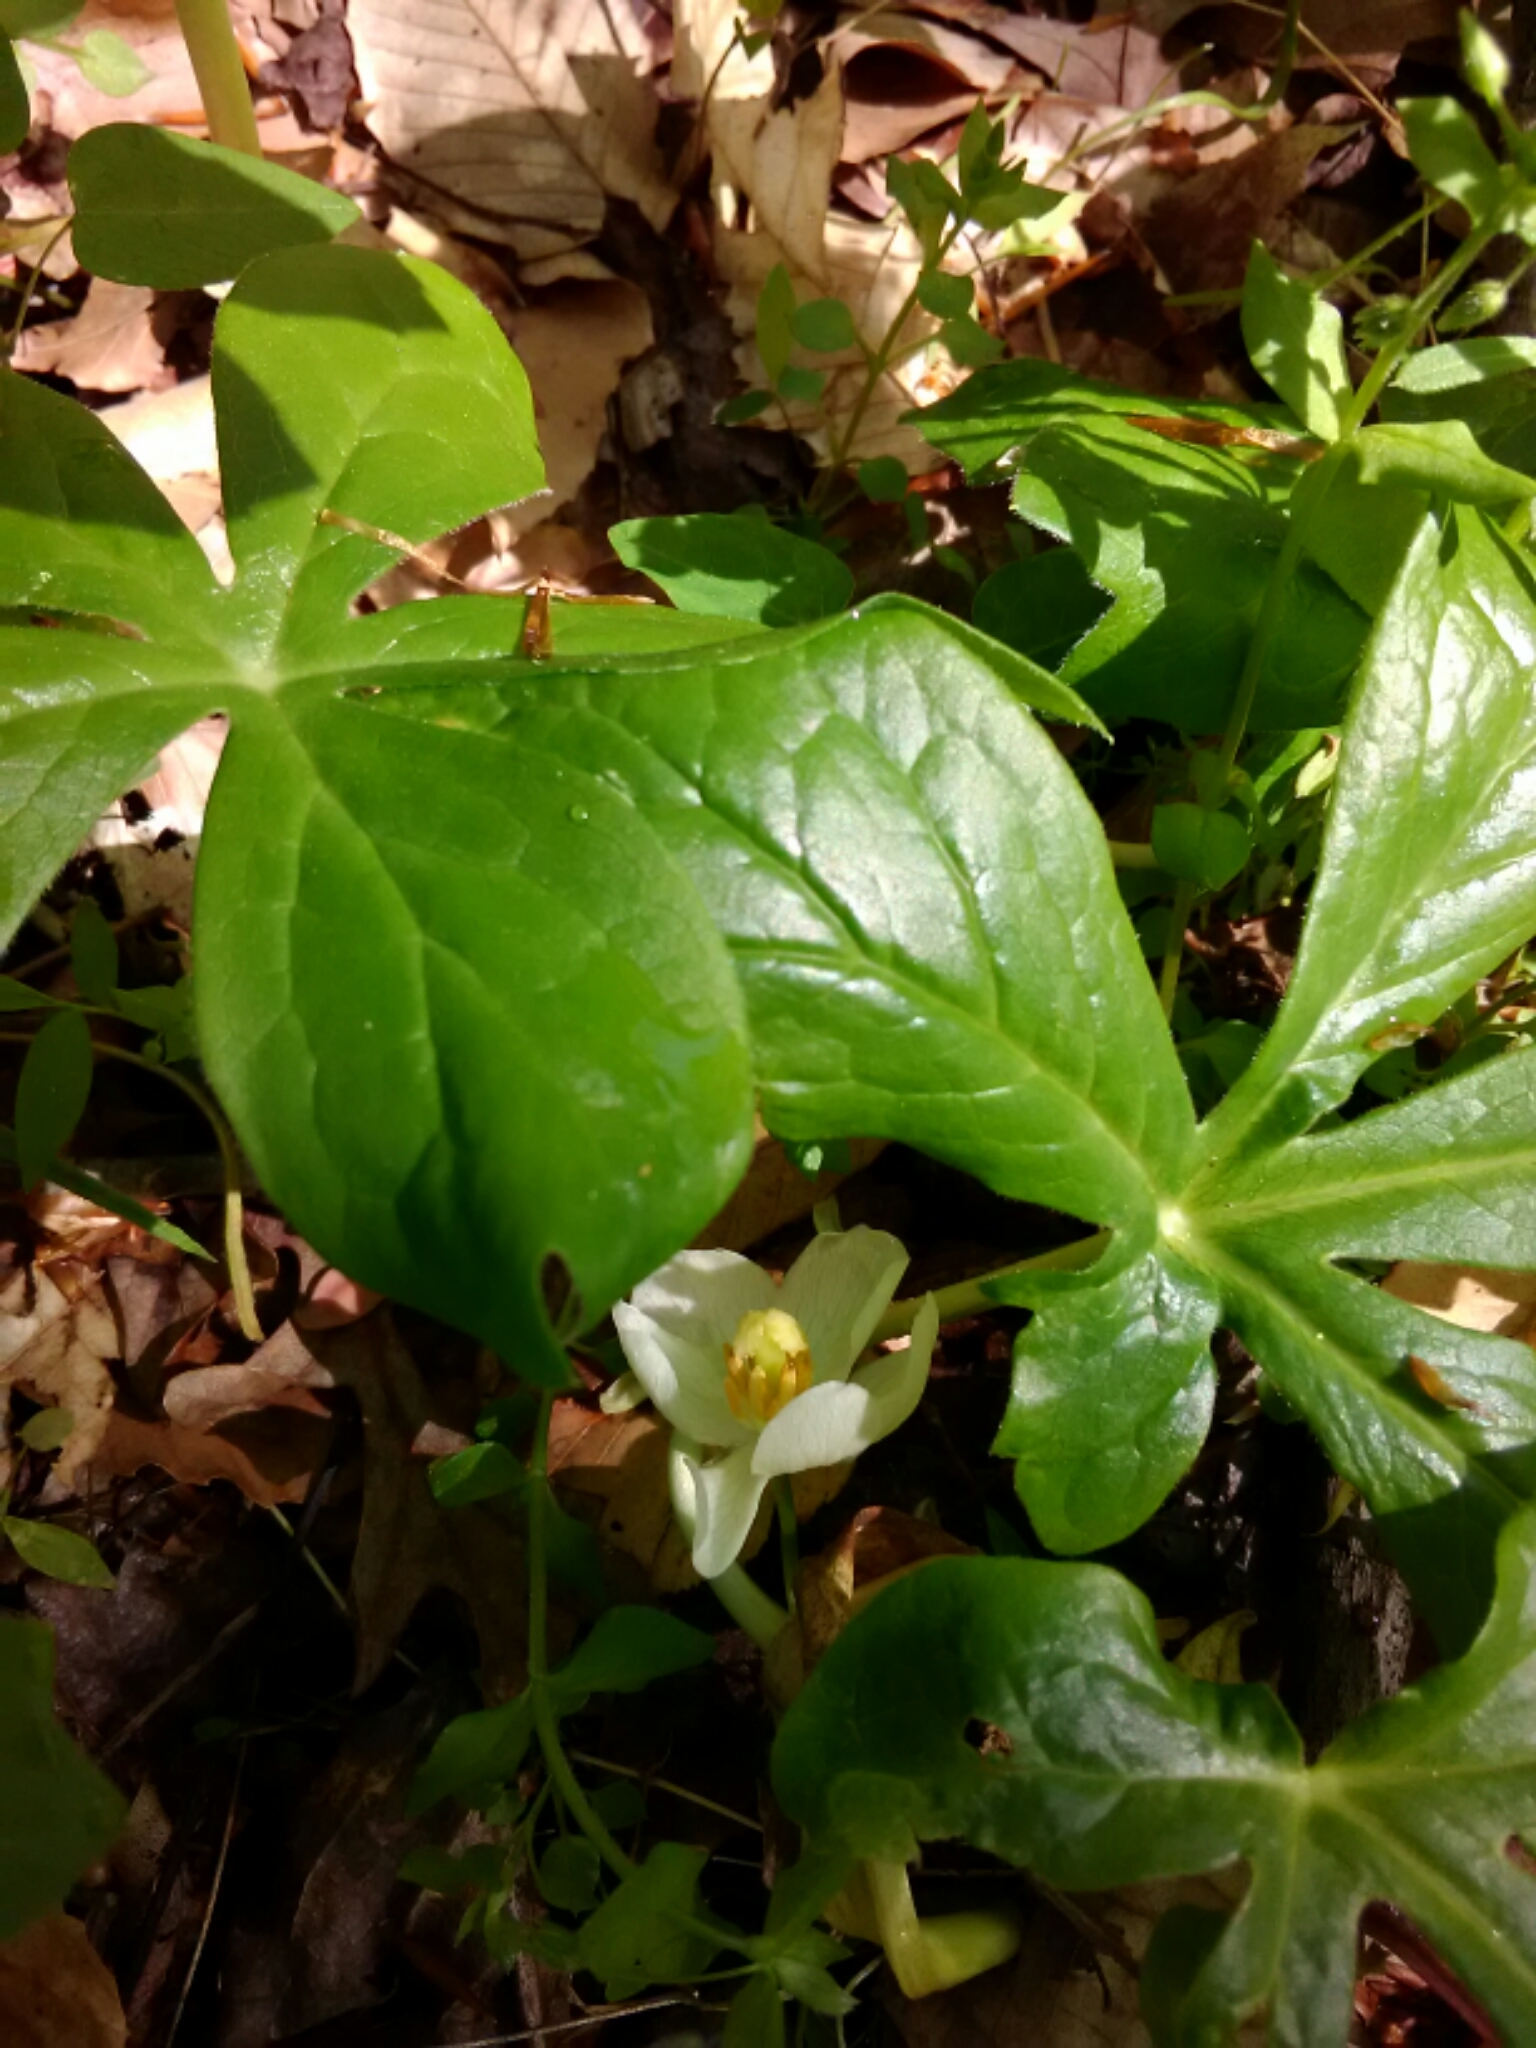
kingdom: Plantae
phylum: Tracheophyta
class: Magnoliopsida
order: Ranunculales
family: Berberidaceae
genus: Podophyllum
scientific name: Podophyllum peltatum
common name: Wild mandrake
